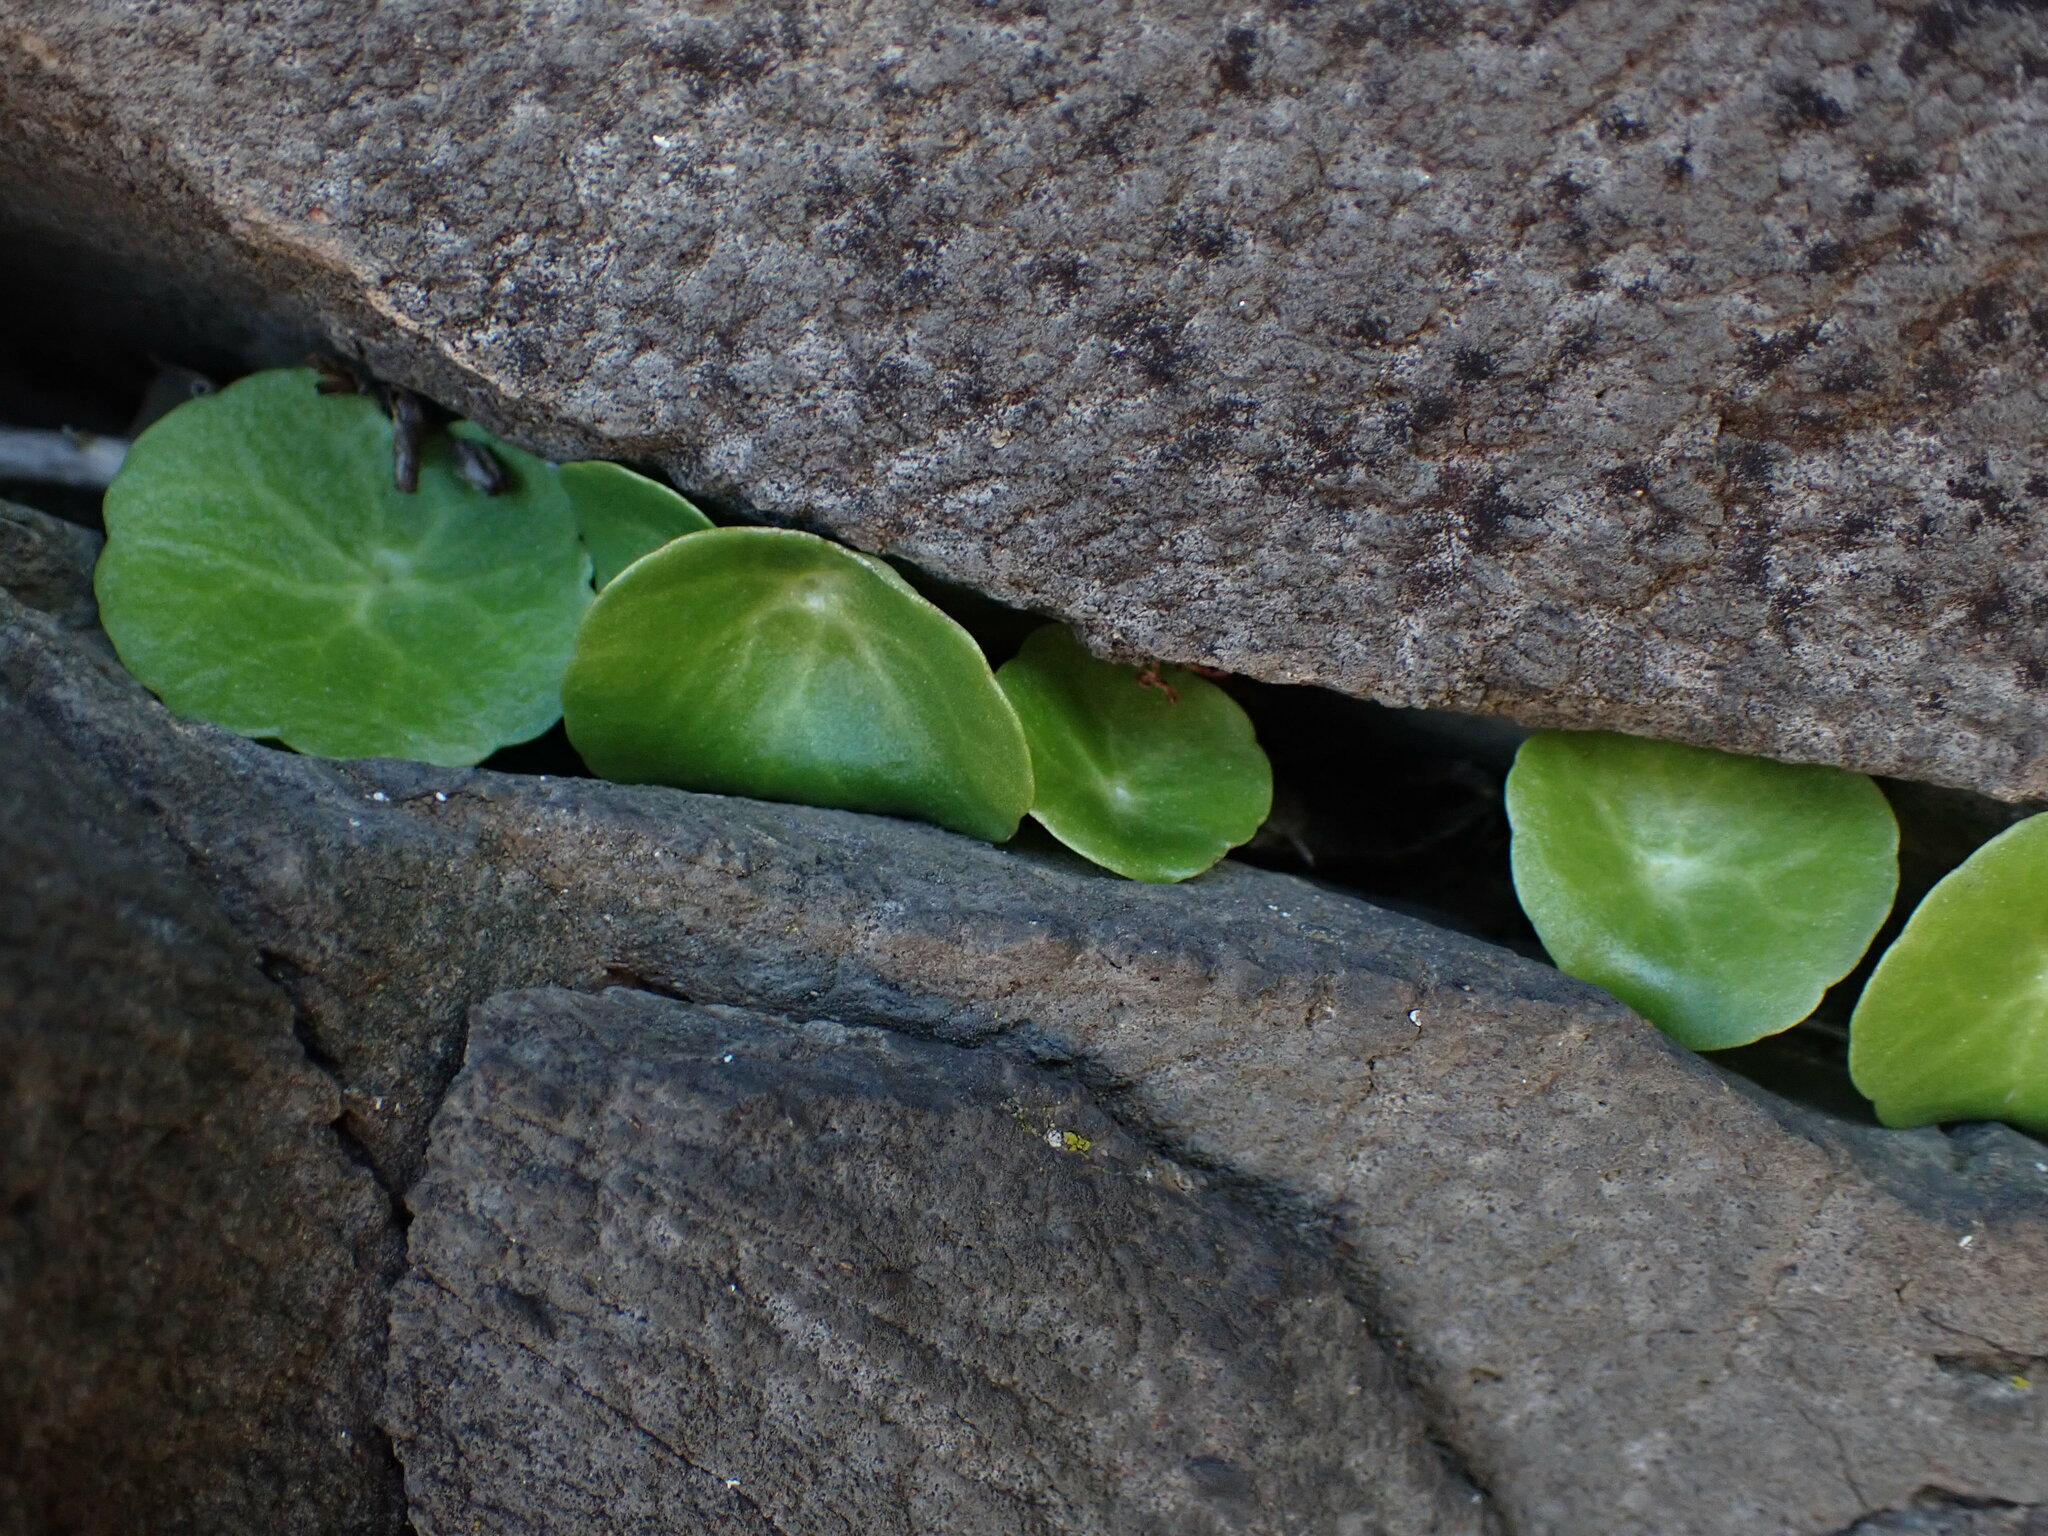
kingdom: Plantae
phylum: Tracheophyta
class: Magnoliopsida
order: Saxifragales
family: Crassulaceae
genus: Umbilicus
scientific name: Umbilicus rupestris
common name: Navelwort
